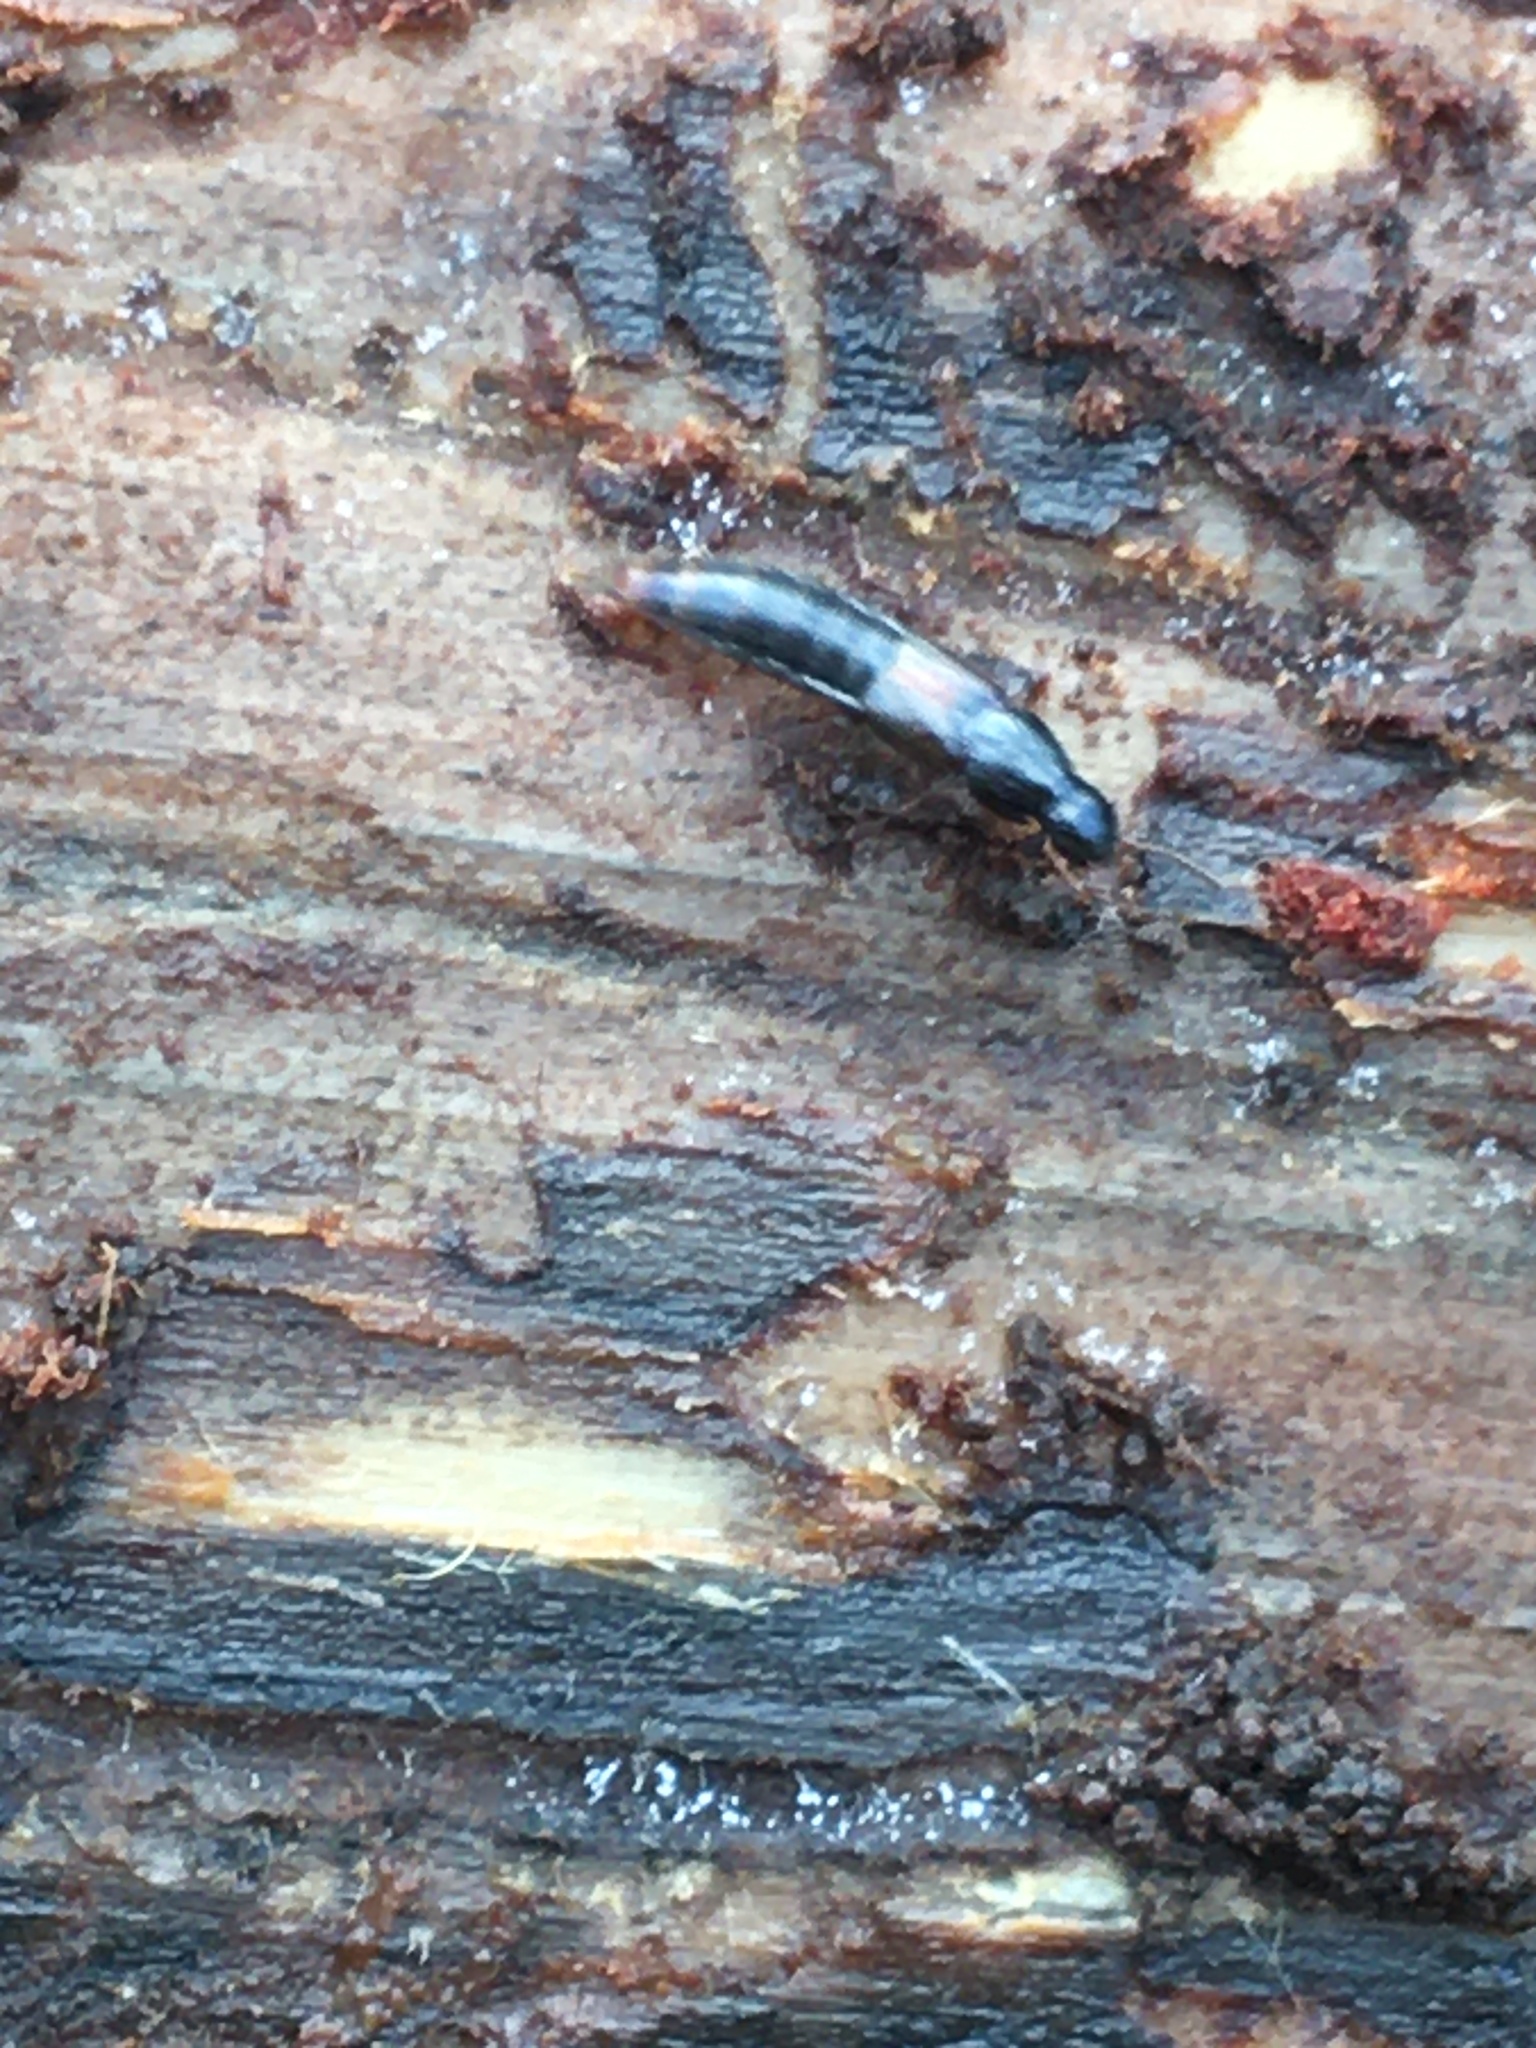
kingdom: Animalia
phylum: Arthropoda
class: Insecta
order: Coleoptera
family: Staphylinidae
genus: Quedius
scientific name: Quedius cruentus
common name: Rove beetle
